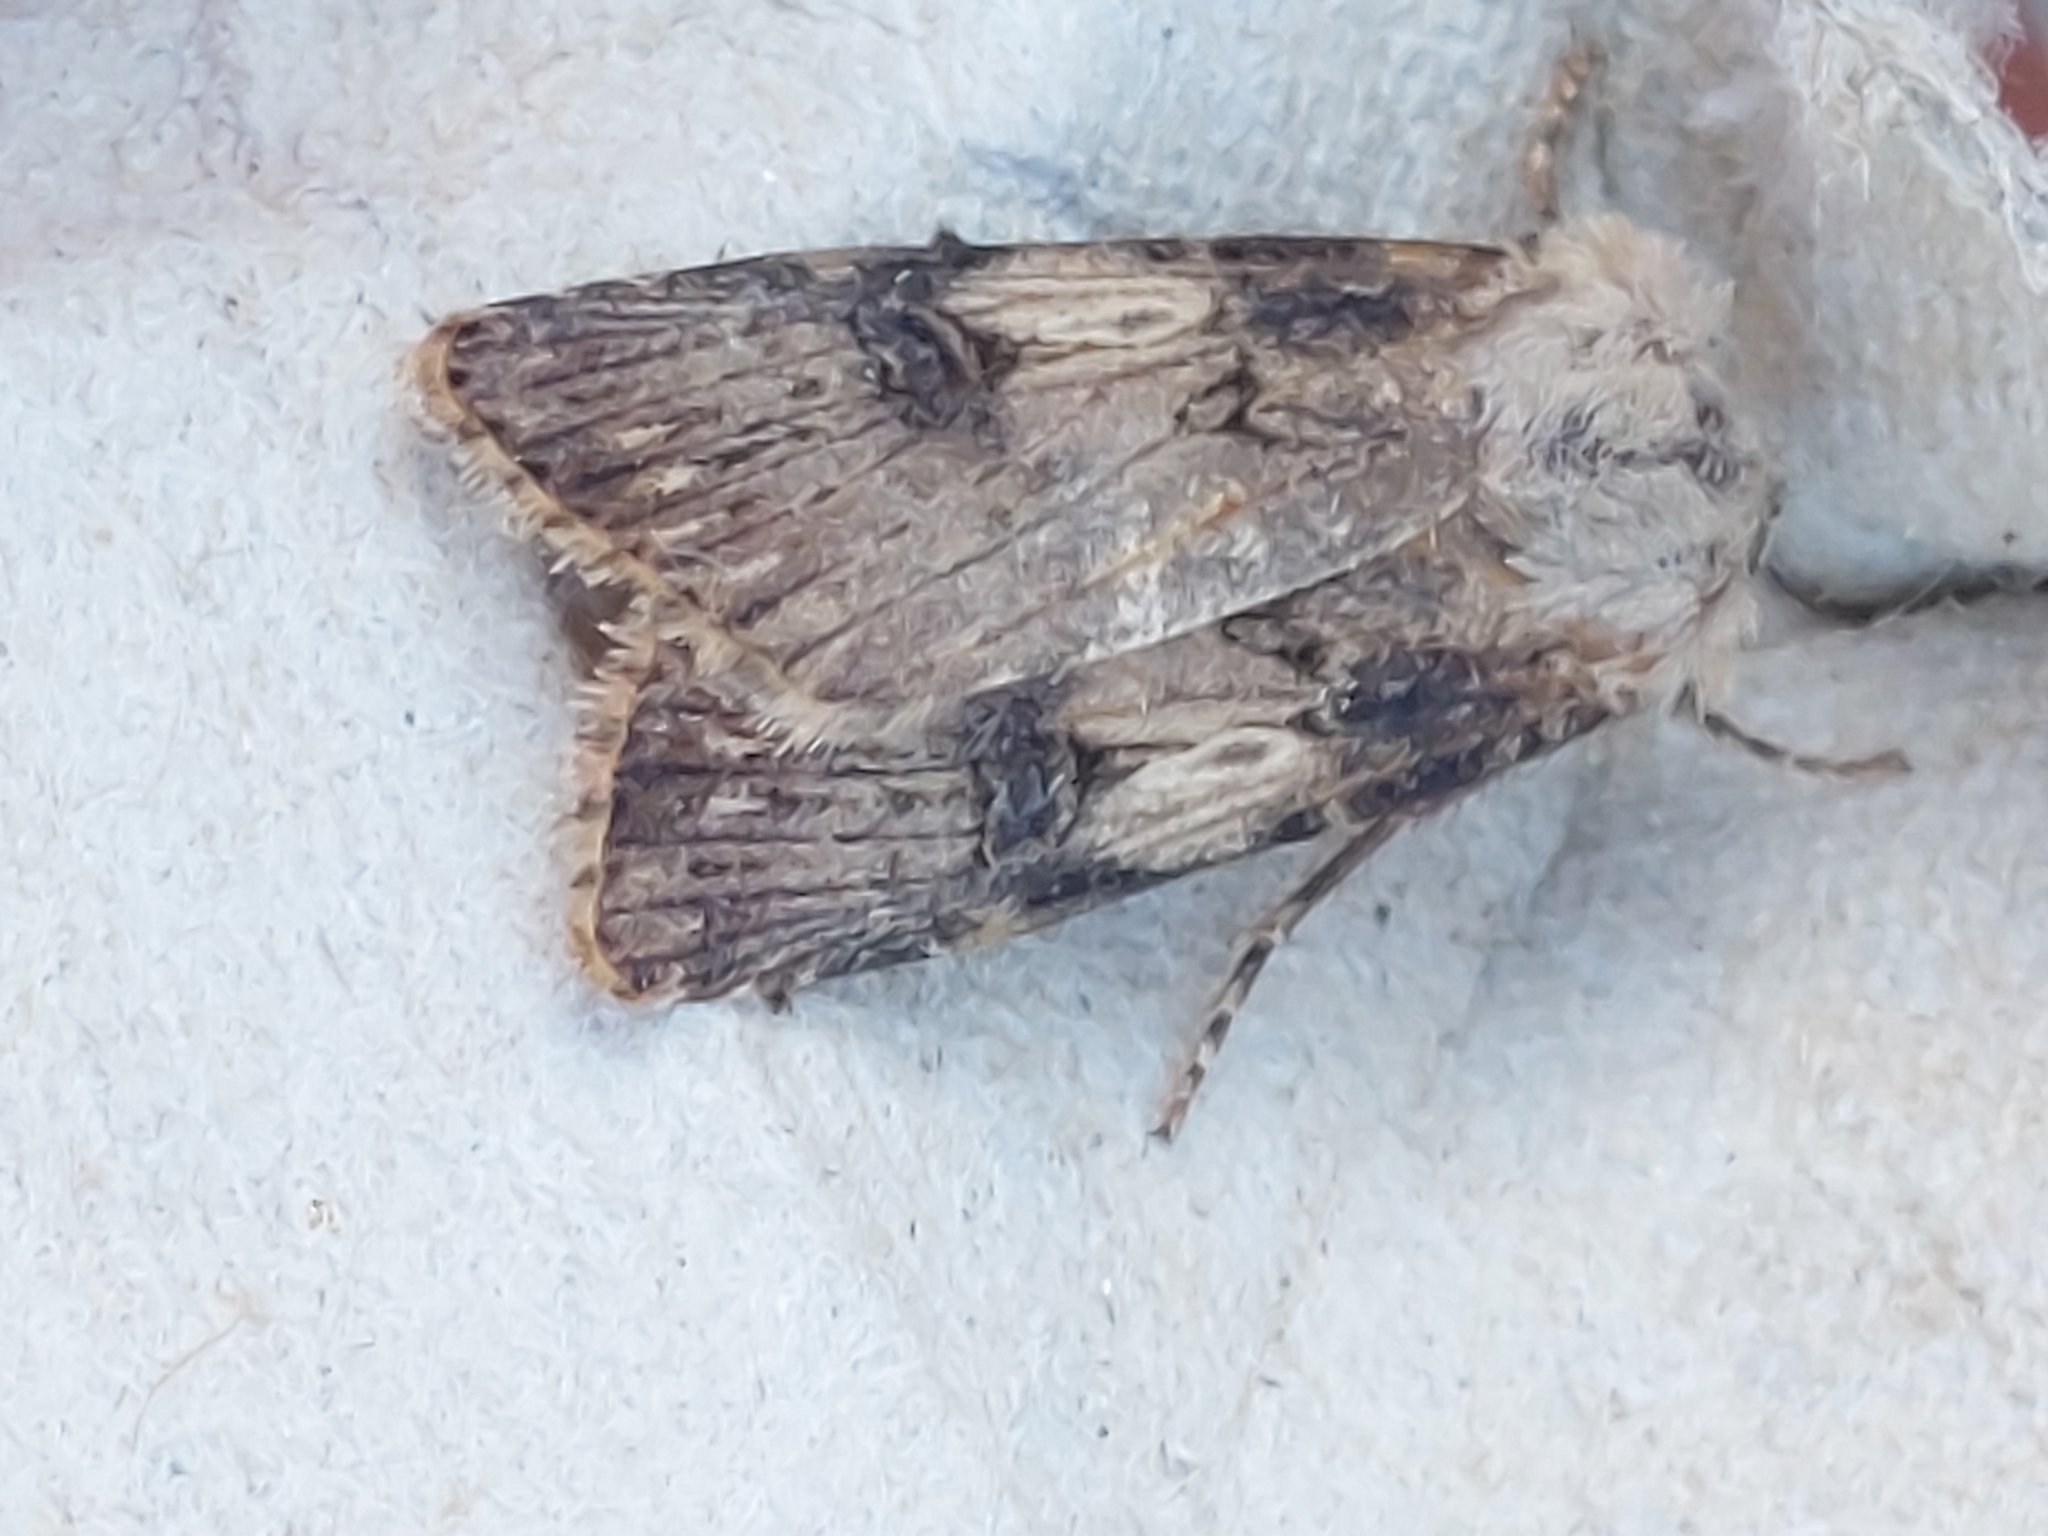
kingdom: Animalia
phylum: Arthropoda
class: Insecta
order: Lepidoptera
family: Noctuidae
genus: Agrotis
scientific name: Agrotis puta
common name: Shuttle-shaped dart
